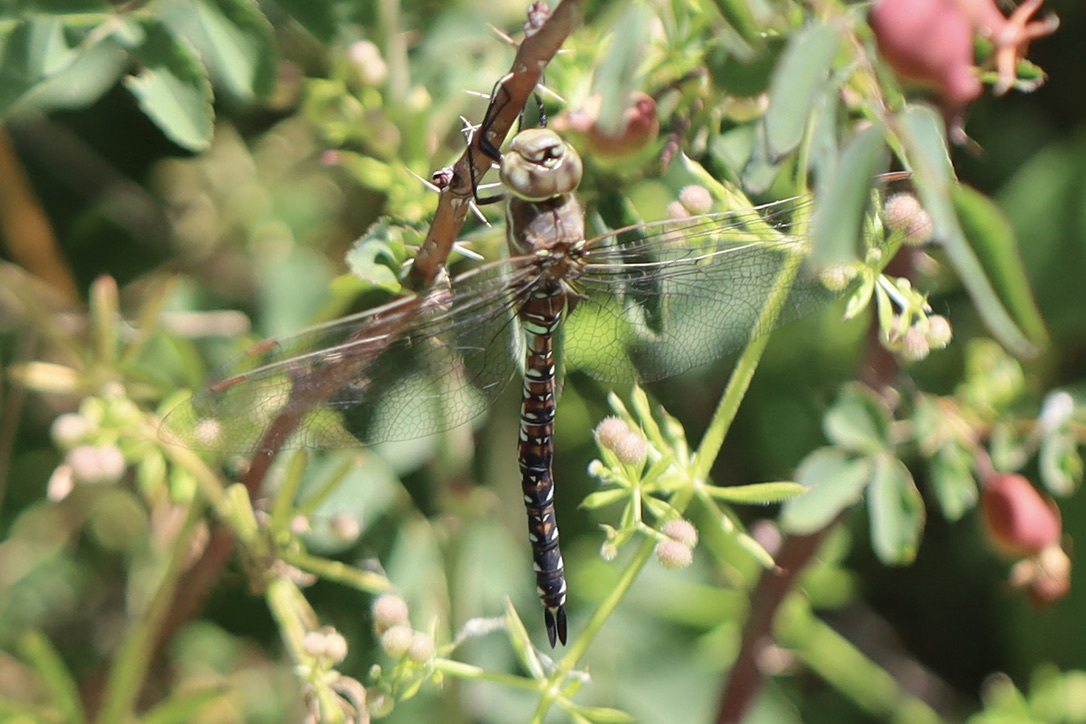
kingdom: Animalia
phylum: Arthropoda
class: Insecta
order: Odonata
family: Aeshnidae
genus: Rhionaeschna
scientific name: Rhionaeschna multicolor
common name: Blue-eyed darner
